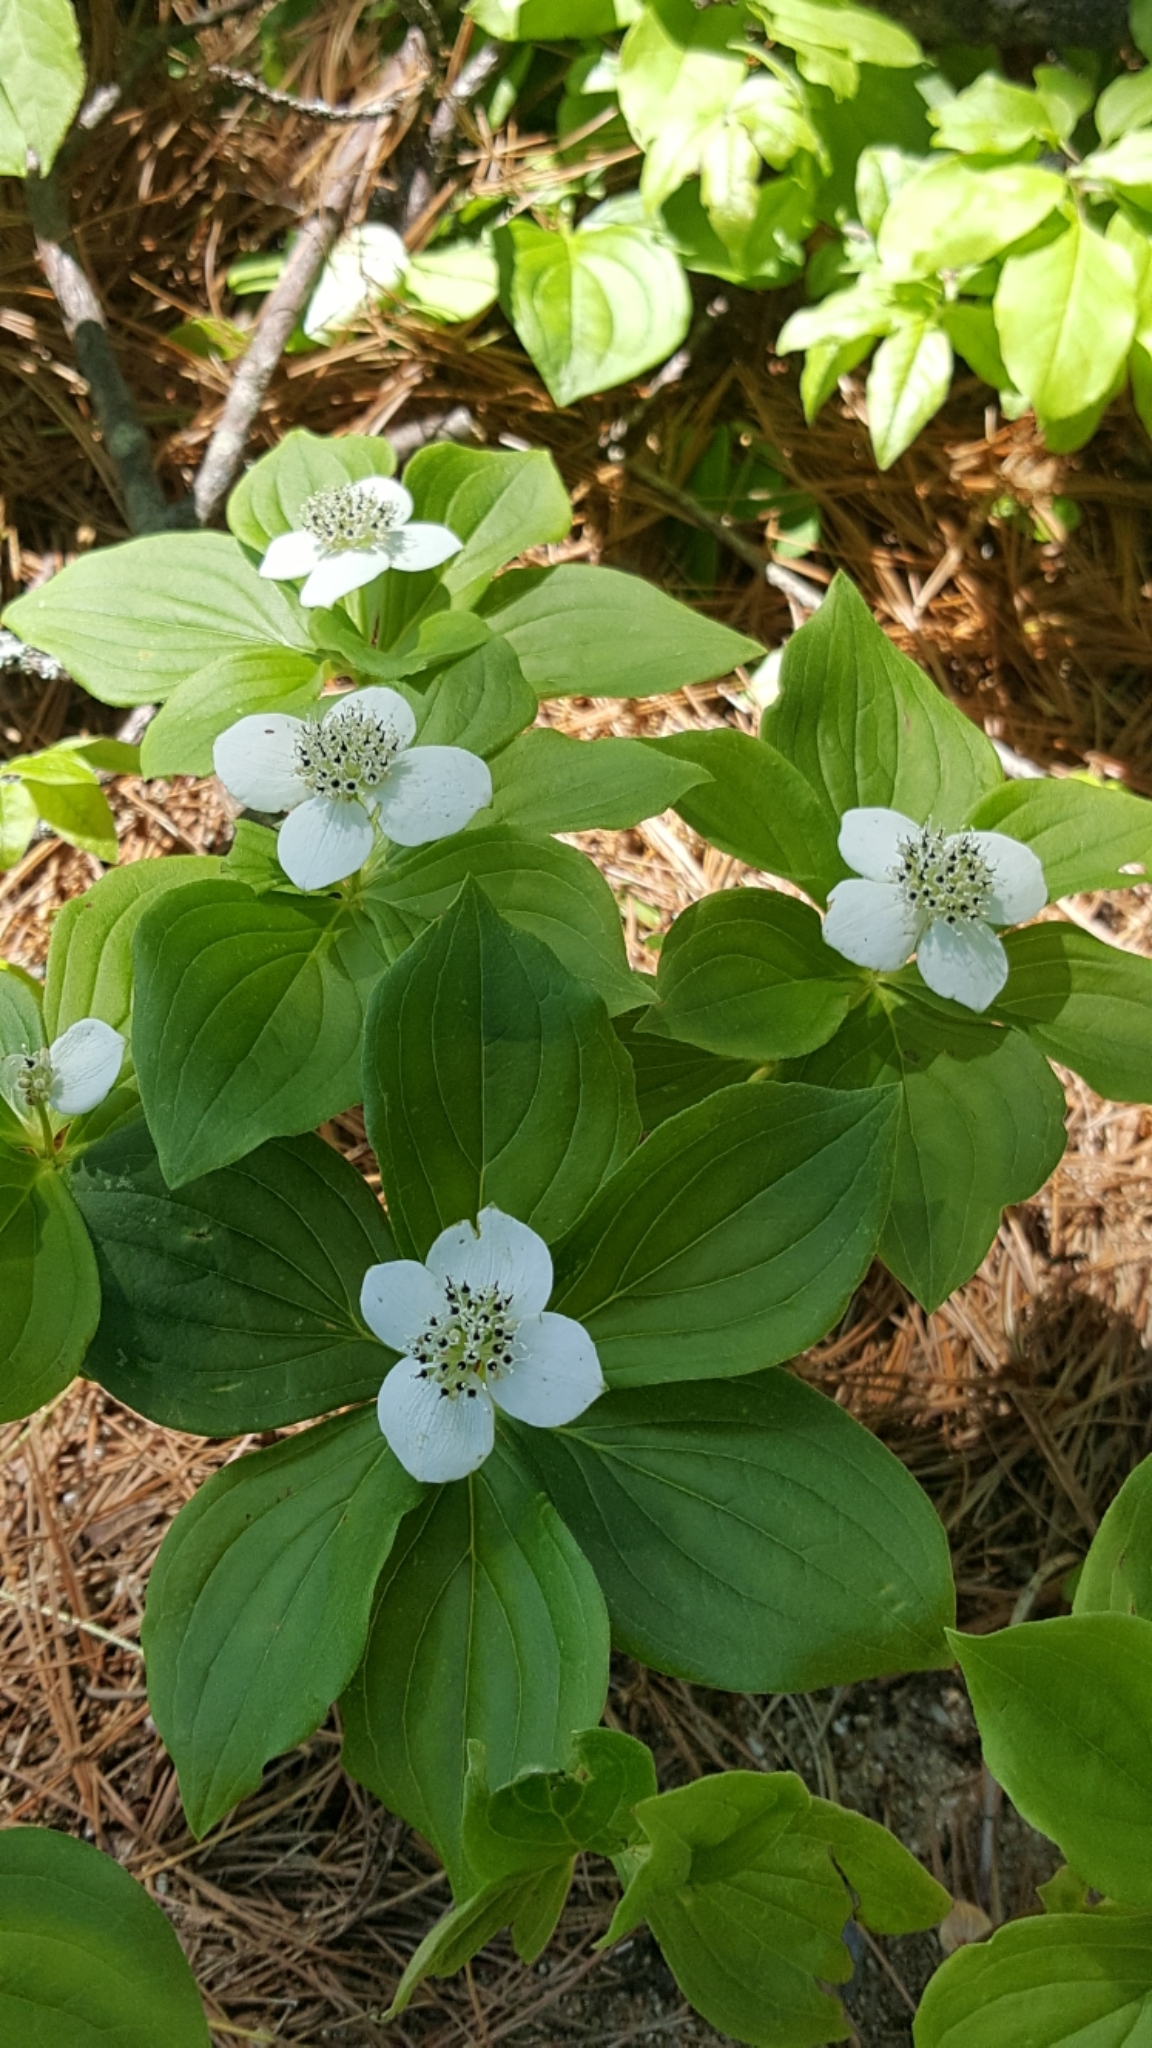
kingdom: Plantae
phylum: Tracheophyta
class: Magnoliopsida
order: Cornales
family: Cornaceae
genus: Cornus
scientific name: Cornus canadensis
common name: Creeping dogwood
